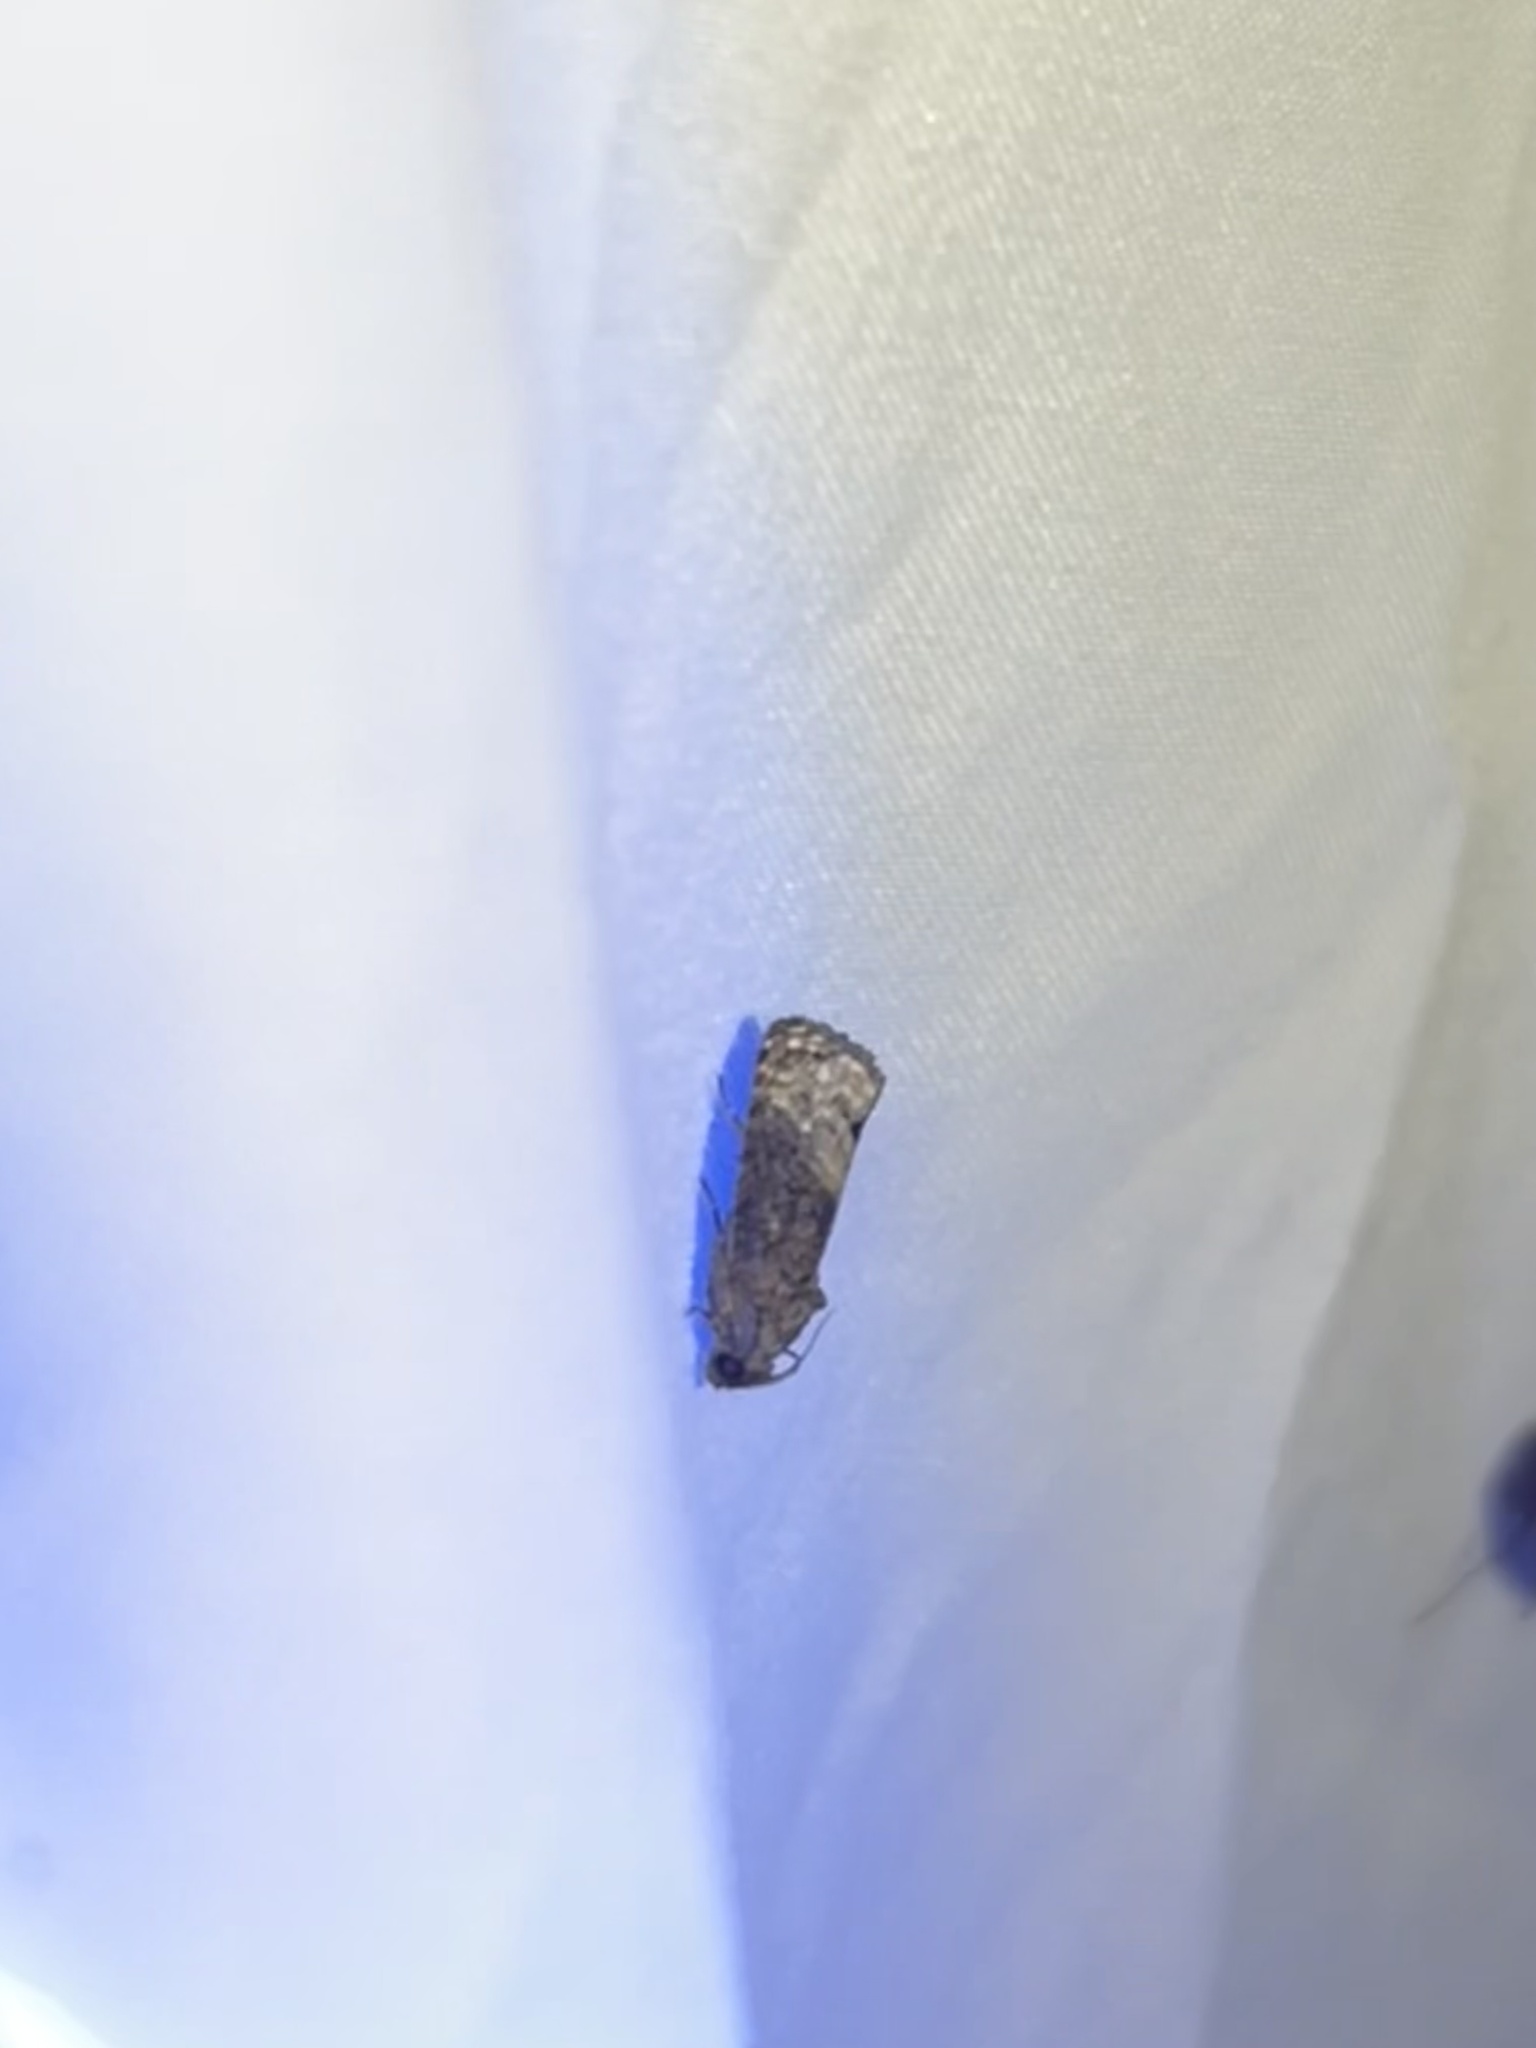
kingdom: Animalia
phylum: Arthropoda
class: Insecta
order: Lepidoptera
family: Tortricidae
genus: Ecdytolopha
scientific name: Ecdytolopha insiticiana
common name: Locust twig borer moth
